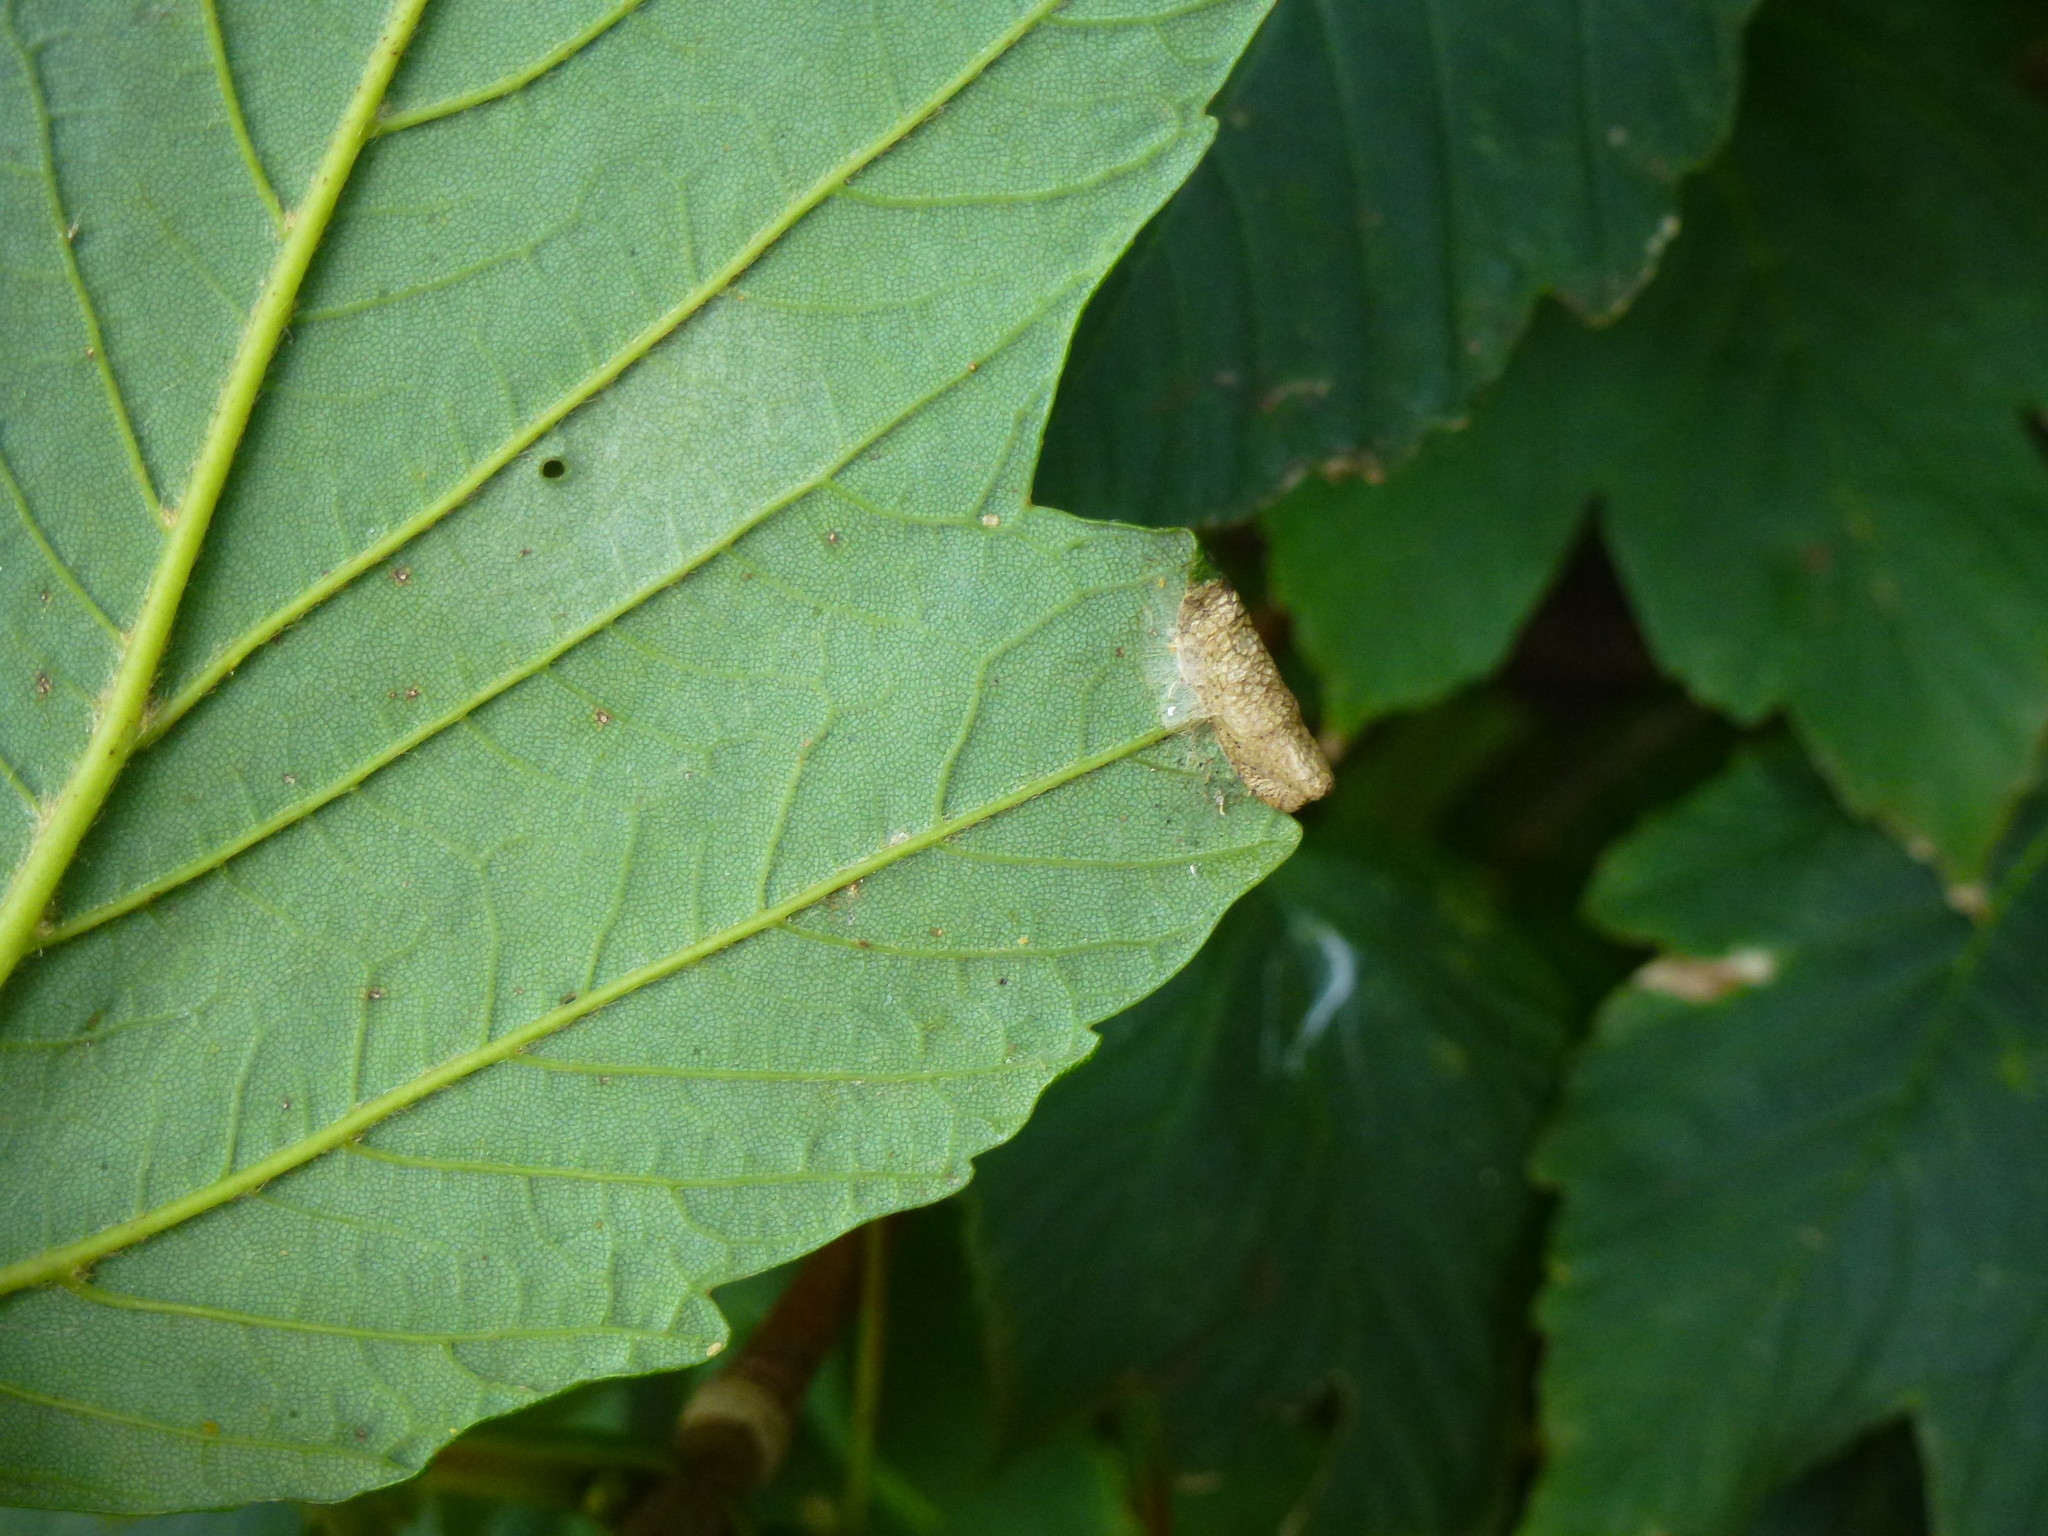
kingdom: Animalia
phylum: Arthropoda
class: Insecta
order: Lepidoptera
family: Gracillariidae
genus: Caloptilia
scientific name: Caloptilia rufipennella
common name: Small red slender
